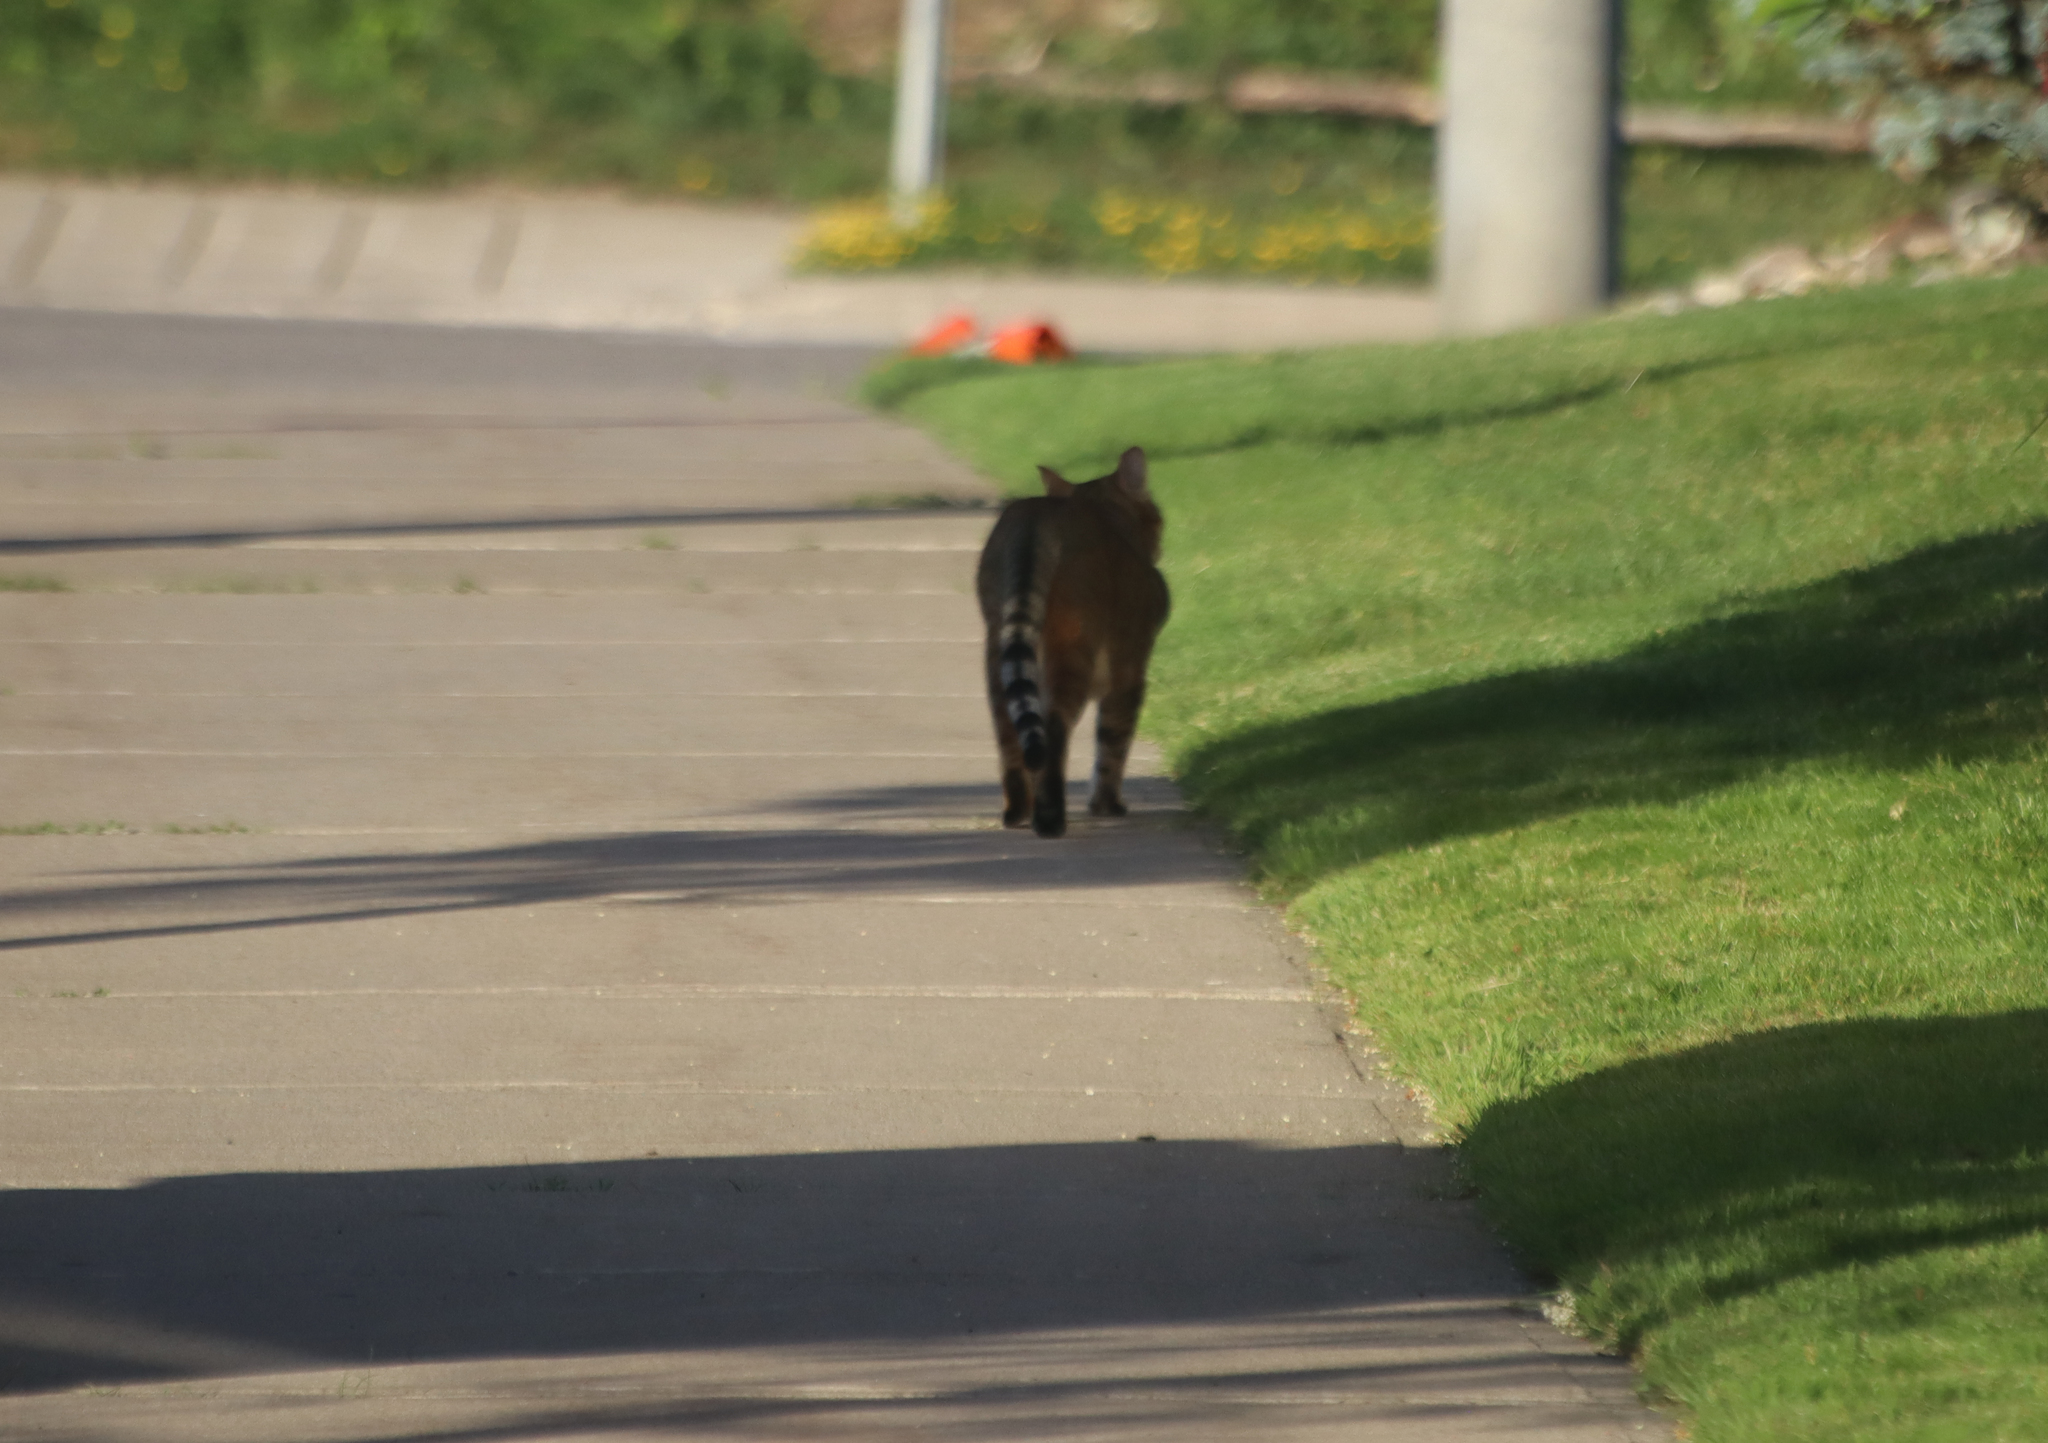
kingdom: Animalia
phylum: Chordata
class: Mammalia
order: Carnivora
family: Felidae
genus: Felis
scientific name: Felis catus
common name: Domestic cat
